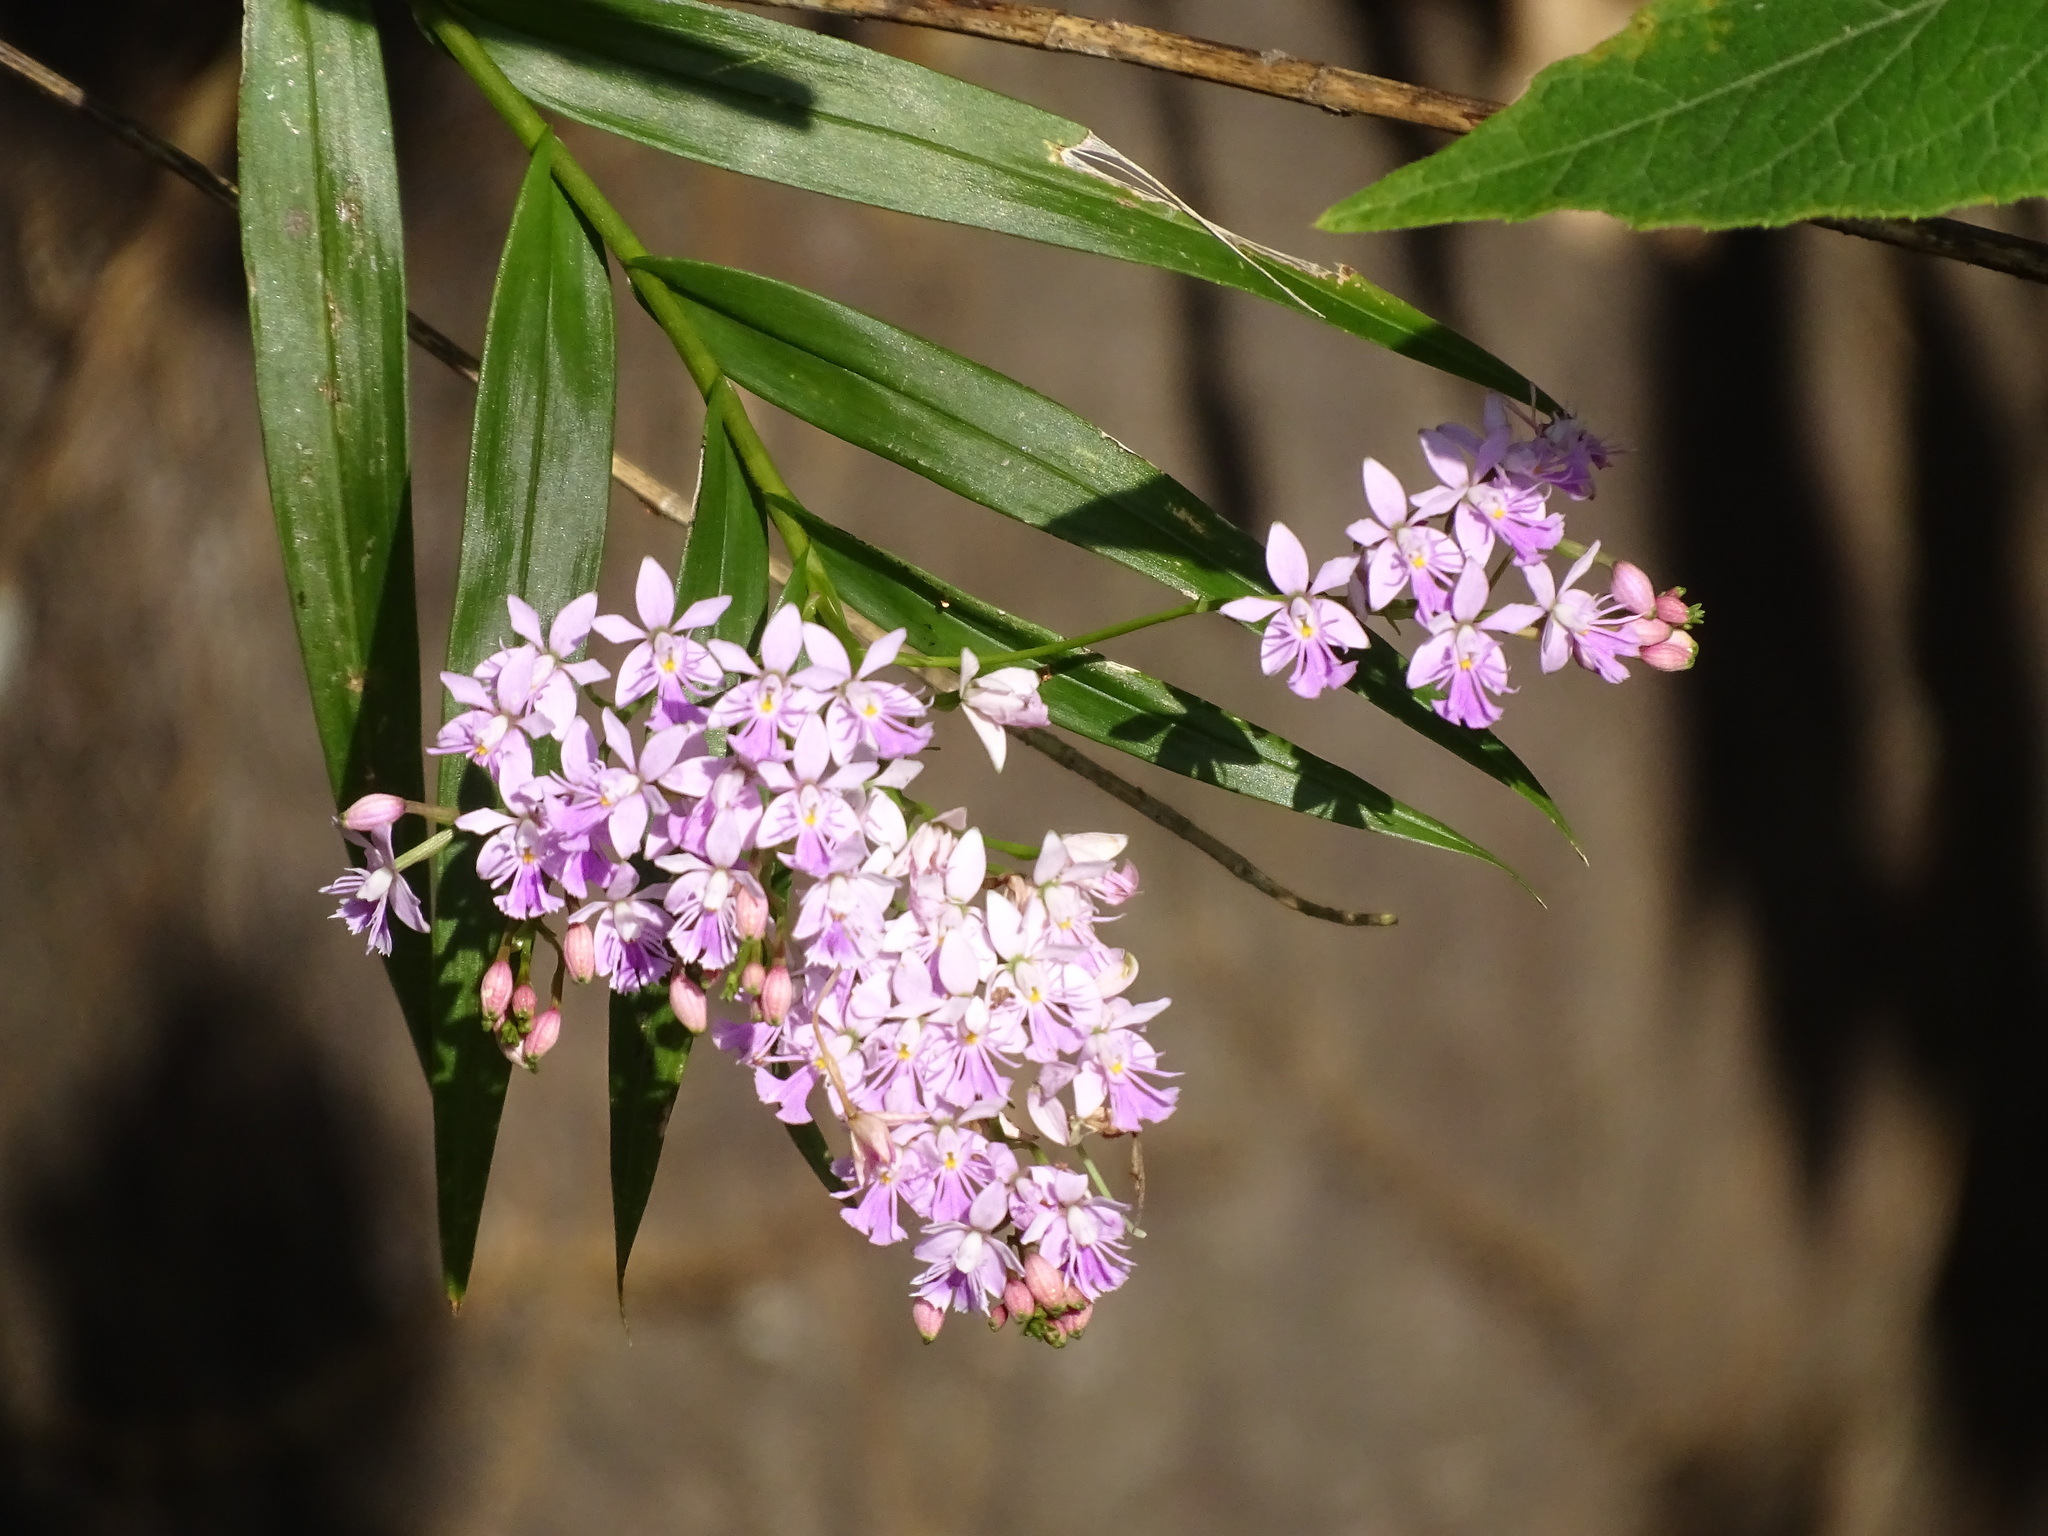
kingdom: Plantae
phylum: Tracheophyta
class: Liliopsida
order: Asparagales
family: Orchidaceae
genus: Epidendrum
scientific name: Epidendrum caligarium
